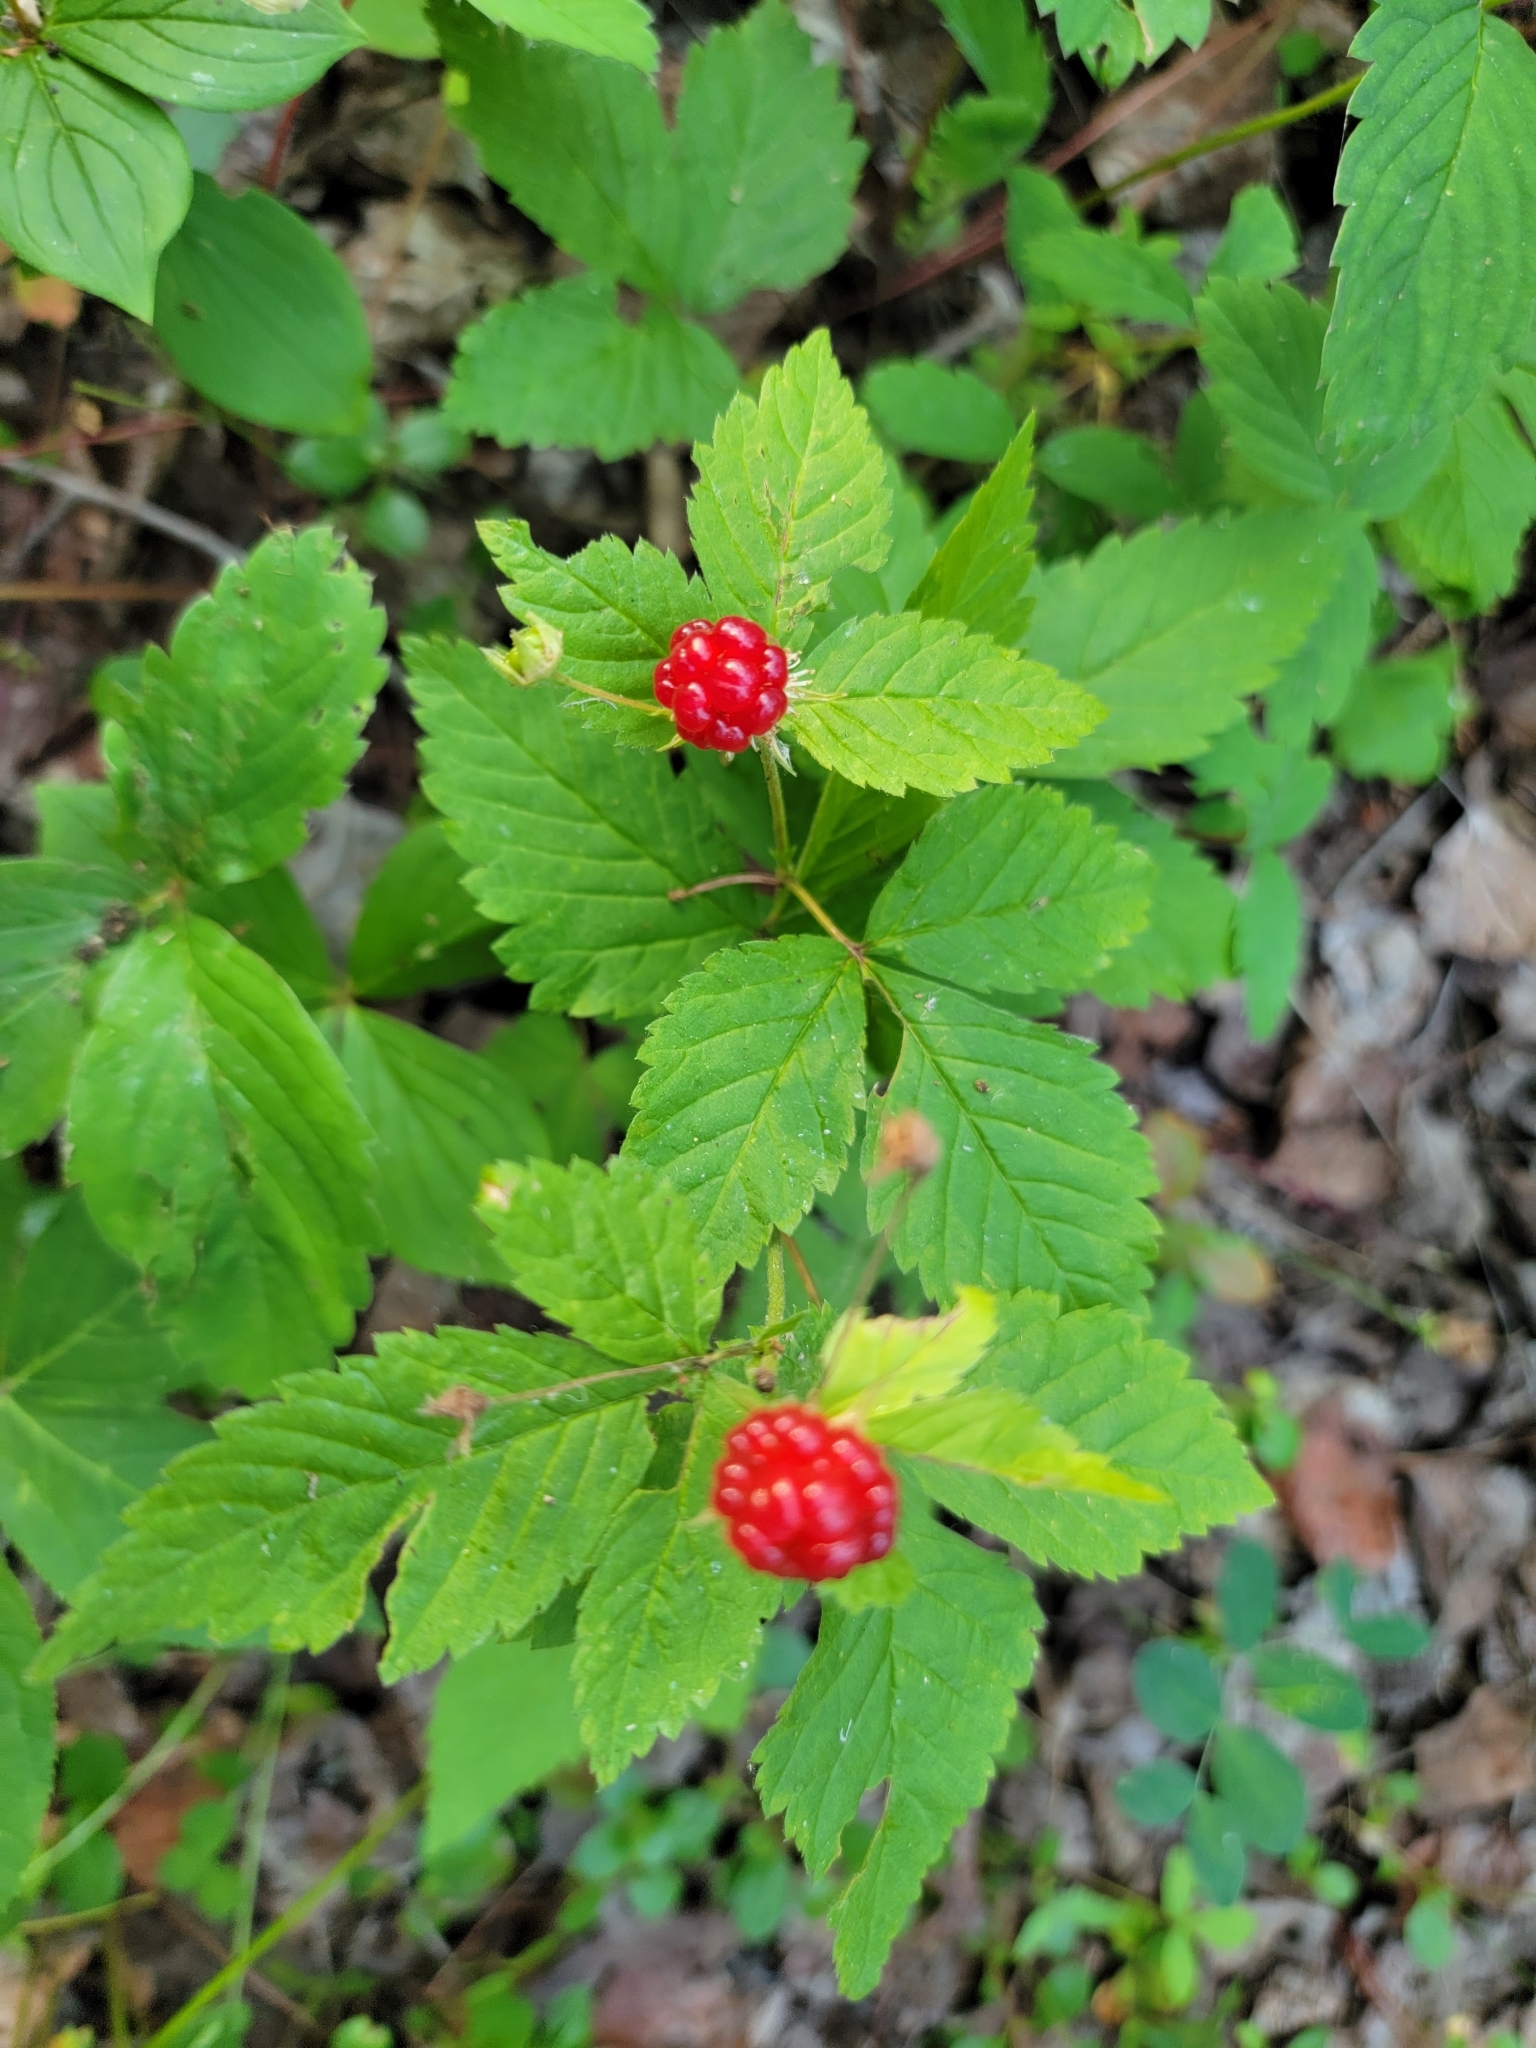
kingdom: Plantae
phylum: Tracheophyta
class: Magnoliopsida
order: Rosales
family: Rosaceae
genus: Rubus
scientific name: Rubus pubescens
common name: Dwarf raspberry
